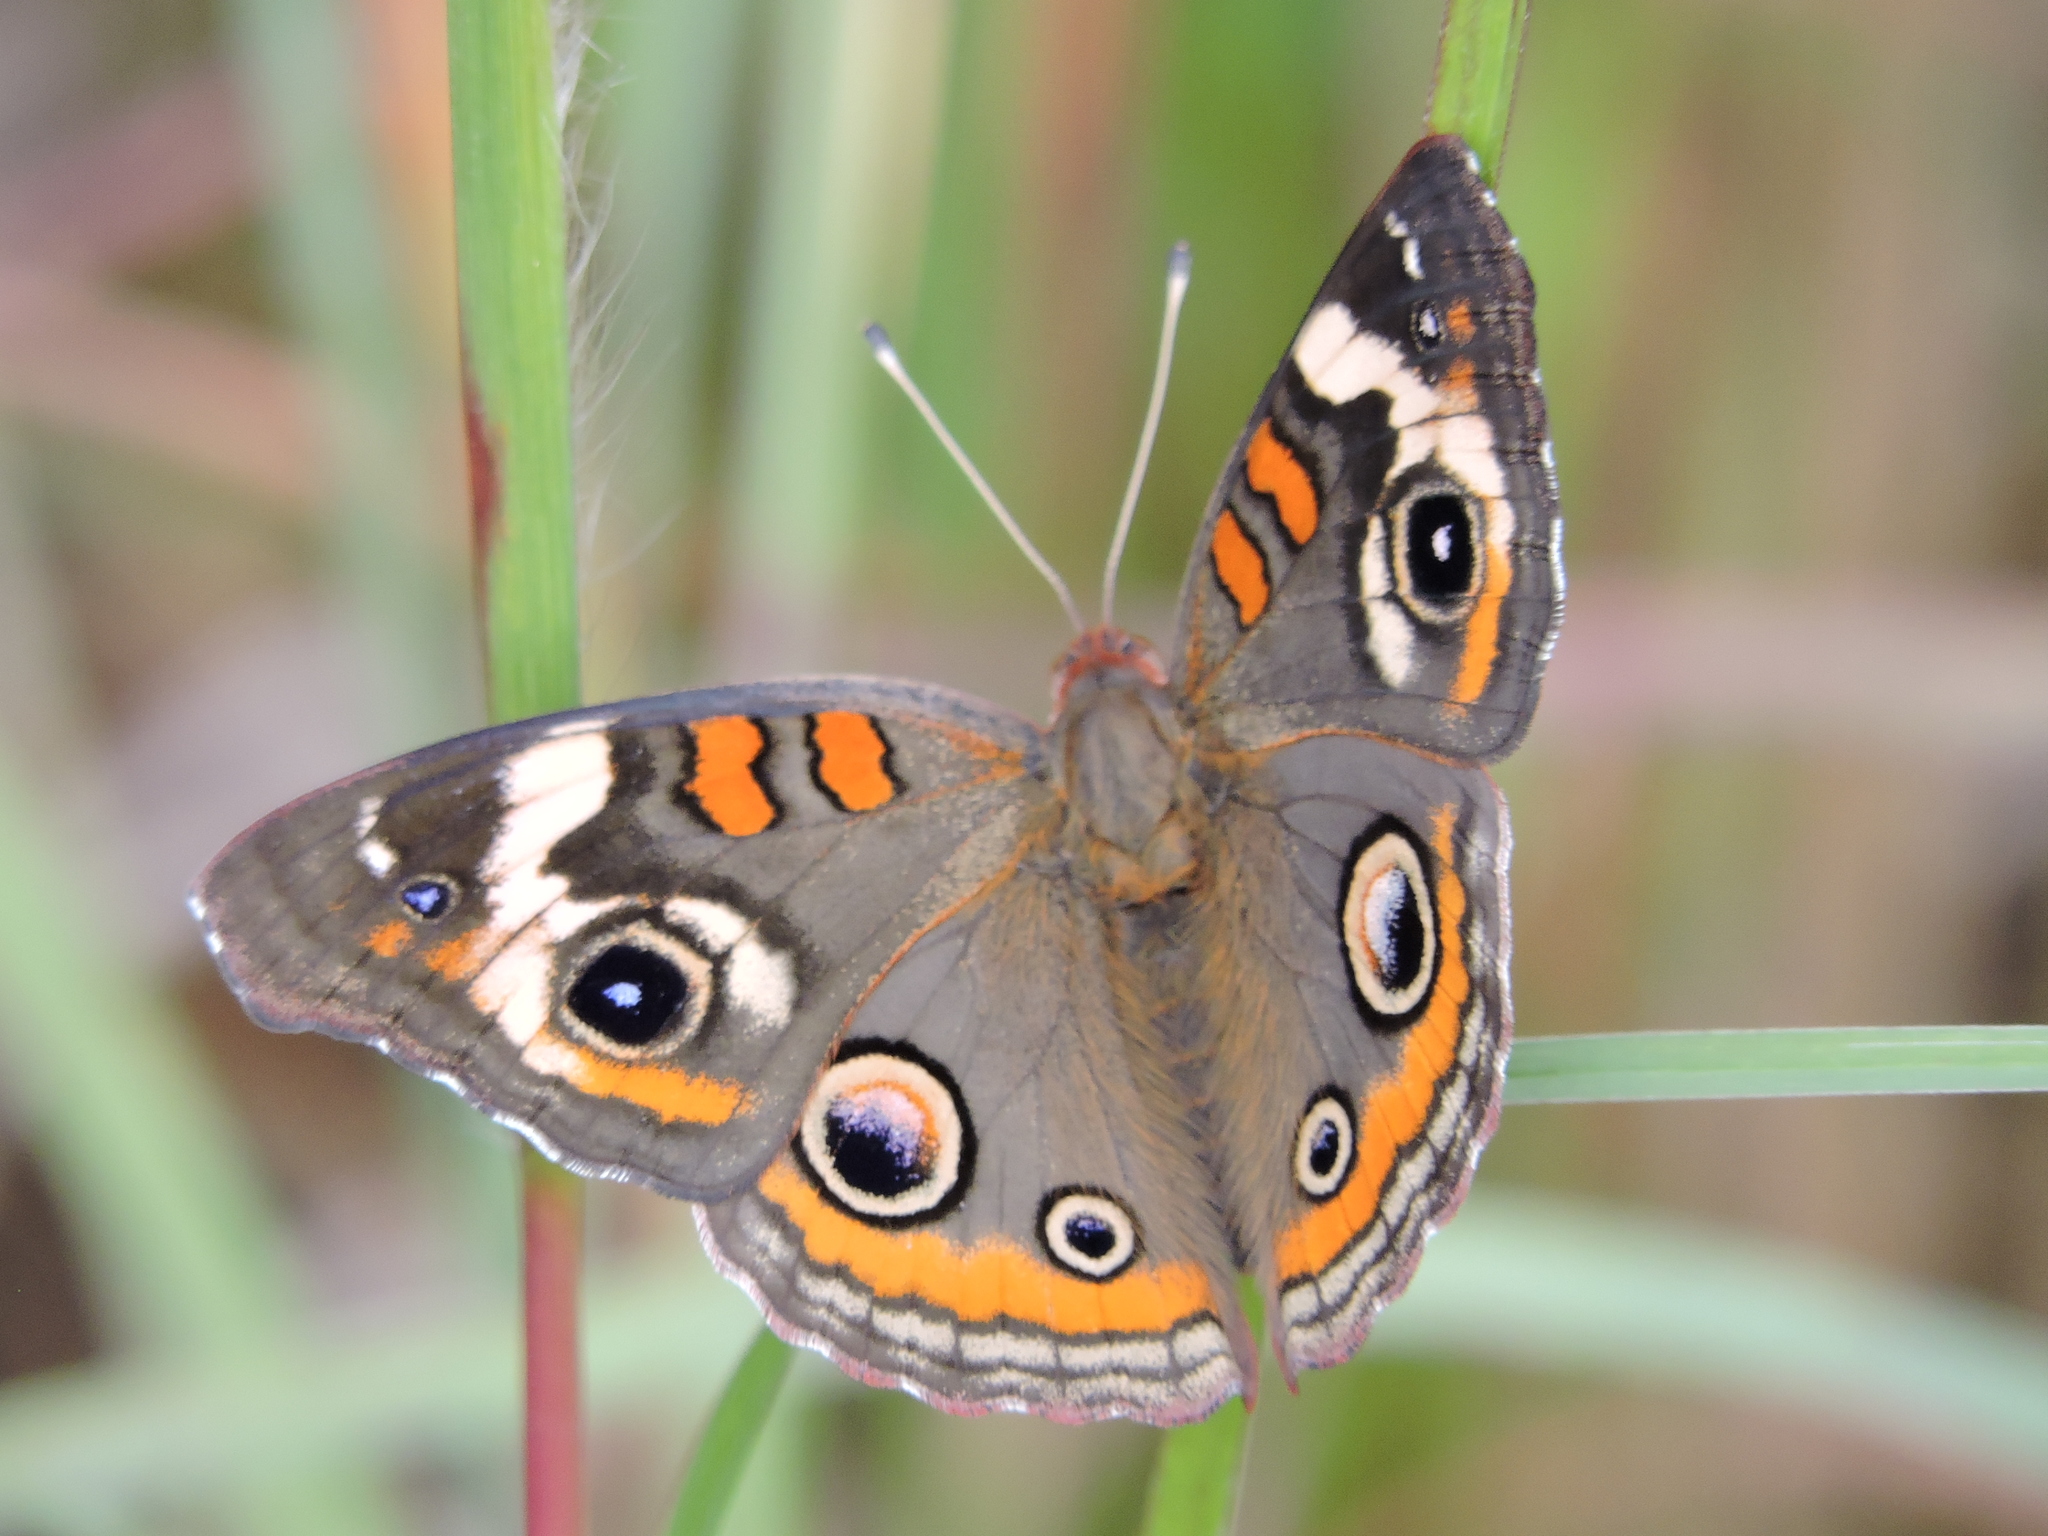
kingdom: Animalia
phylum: Arthropoda
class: Insecta
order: Lepidoptera
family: Nymphalidae
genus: Junonia
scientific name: Junonia coenia
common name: Common buckeye
